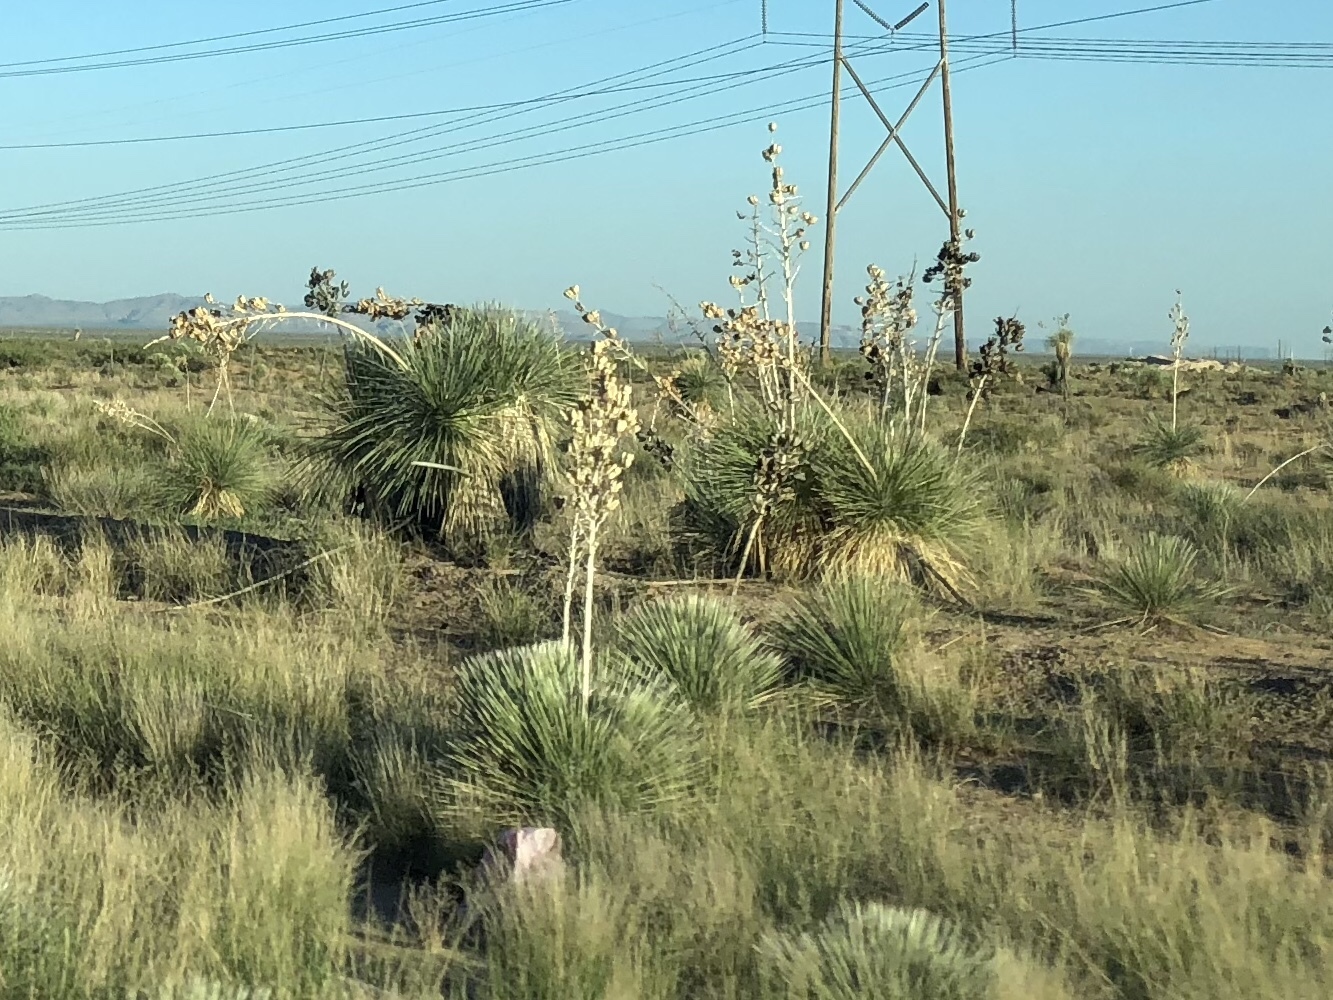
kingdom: Plantae
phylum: Tracheophyta
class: Liliopsida
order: Asparagales
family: Asparagaceae
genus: Yucca
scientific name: Yucca elata
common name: Palmella
